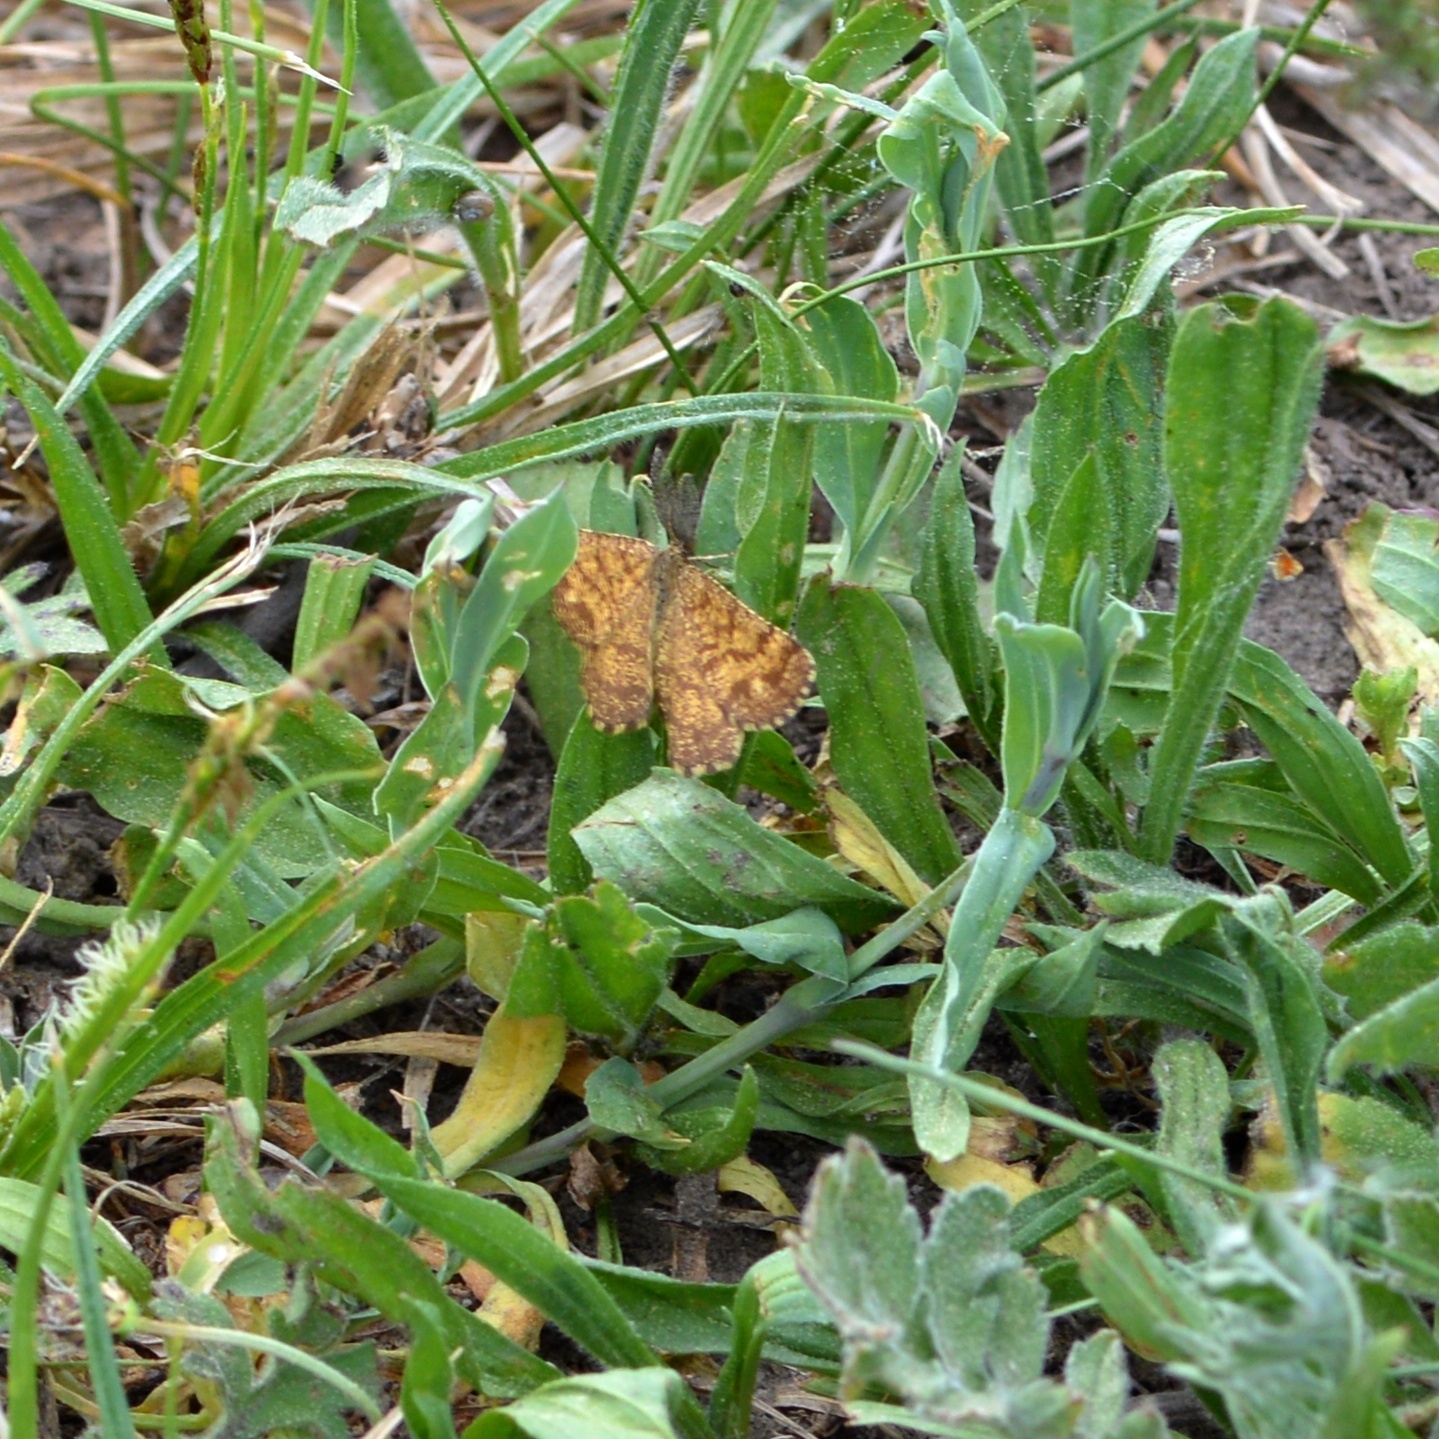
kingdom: Animalia
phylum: Arthropoda
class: Insecta
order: Lepidoptera
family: Geometridae
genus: Ematurga
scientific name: Ematurga atomaria
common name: Common heath
